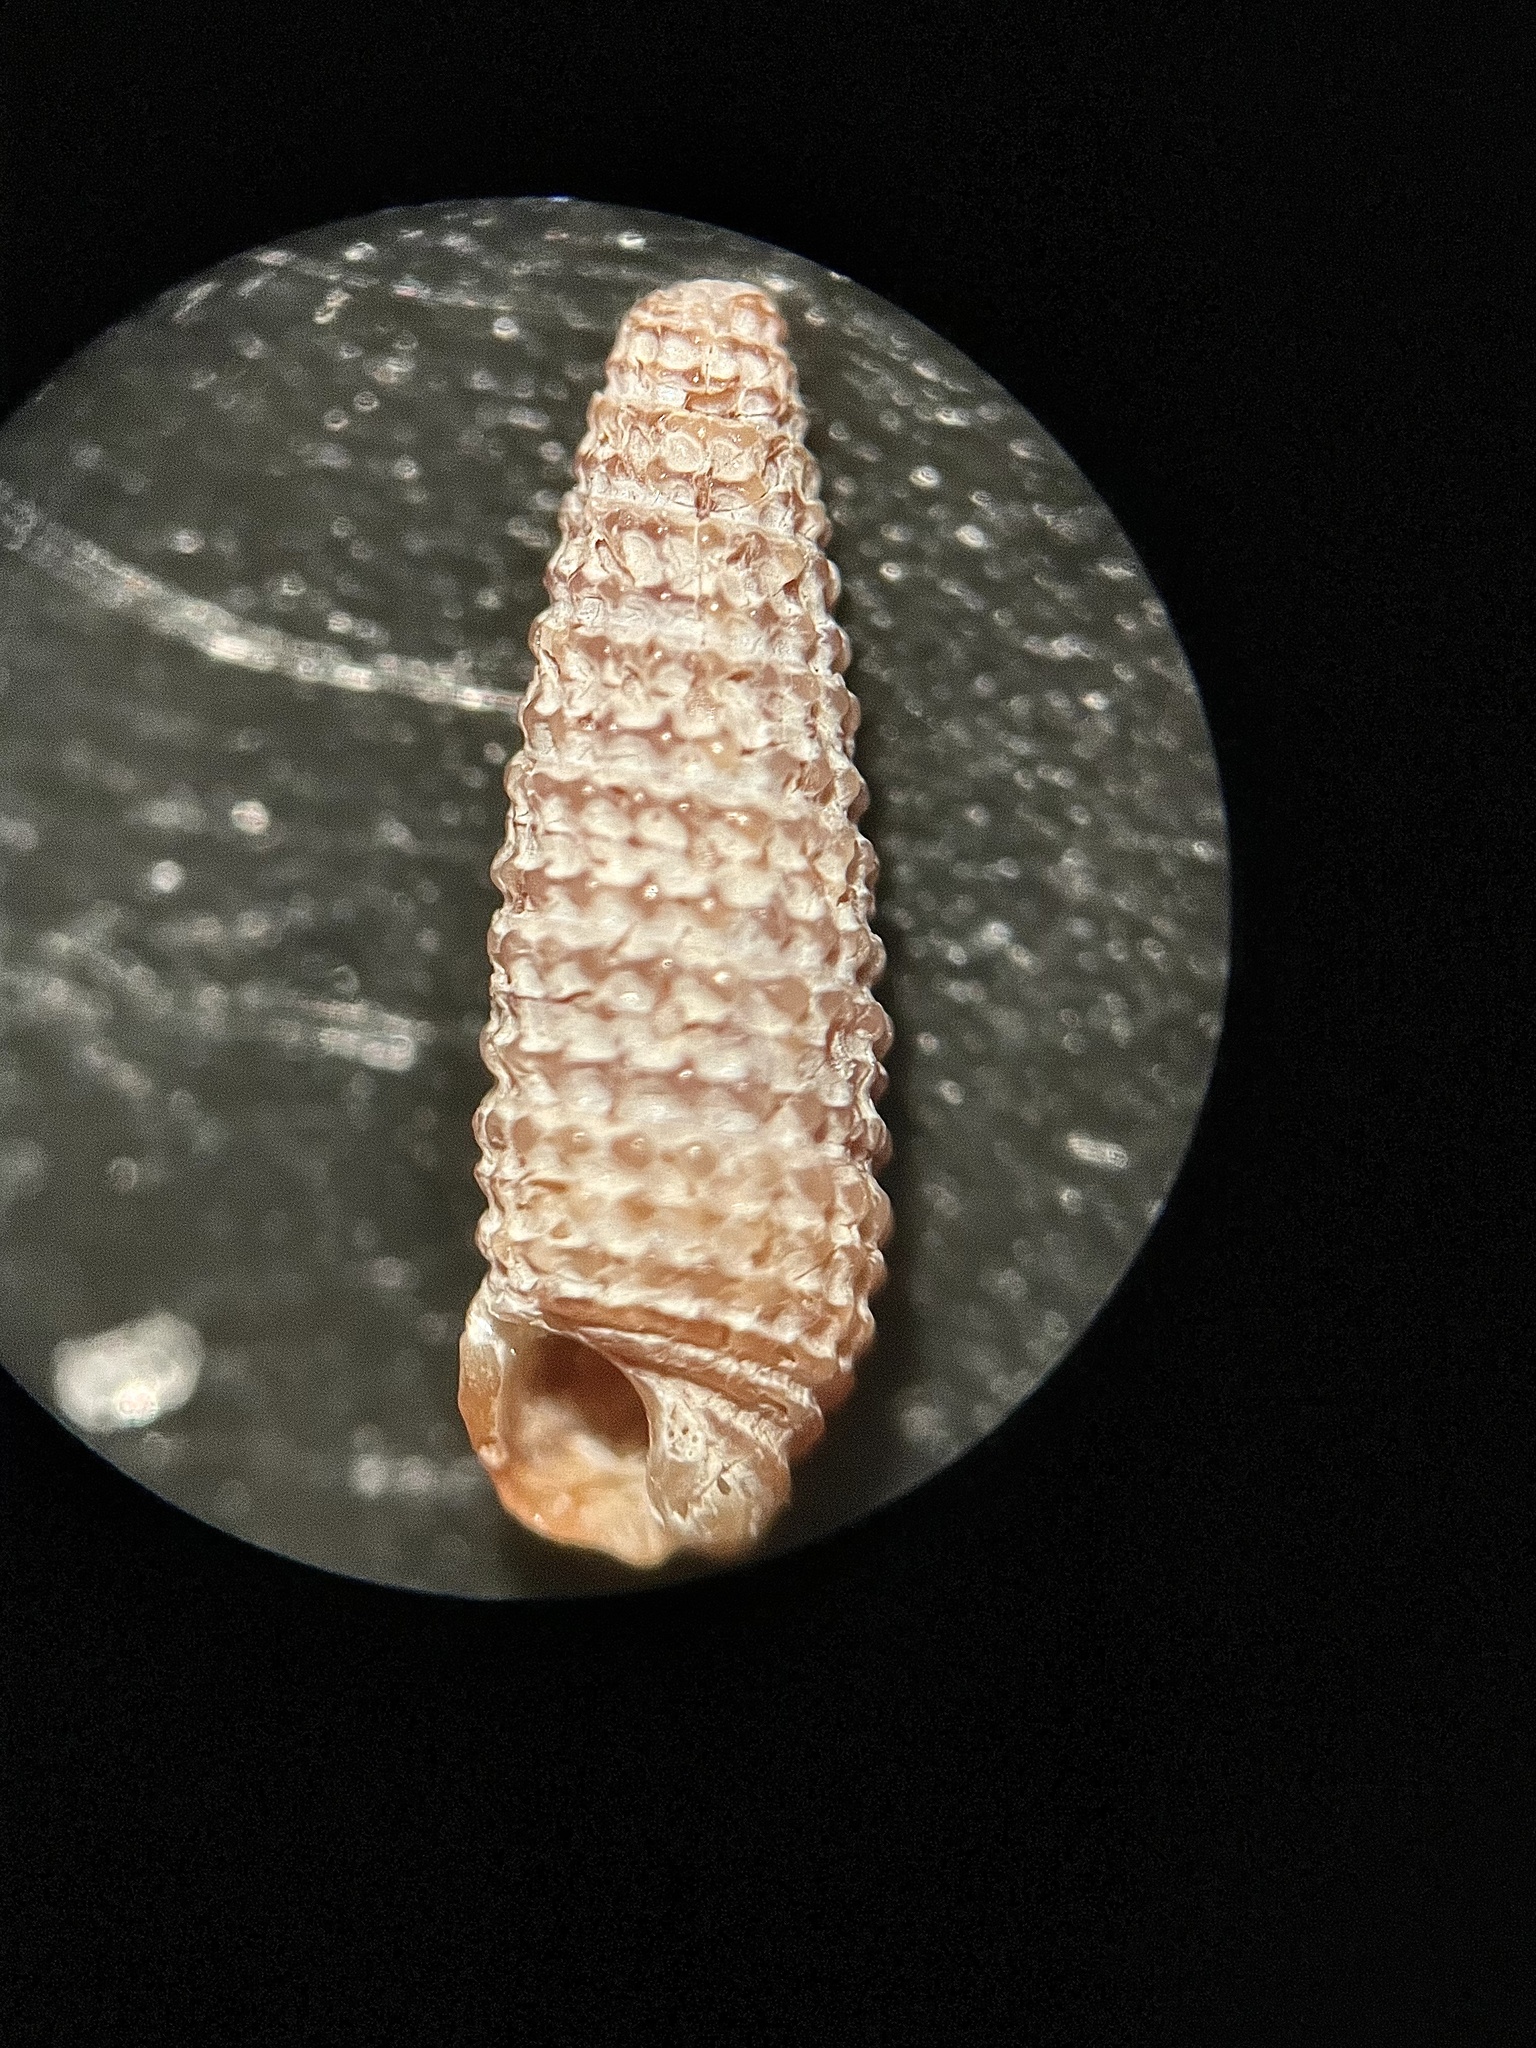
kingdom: Animalia
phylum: Mollusca
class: Gastropoda
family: Triphoridae
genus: Marshallora
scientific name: Marshallora modesta
